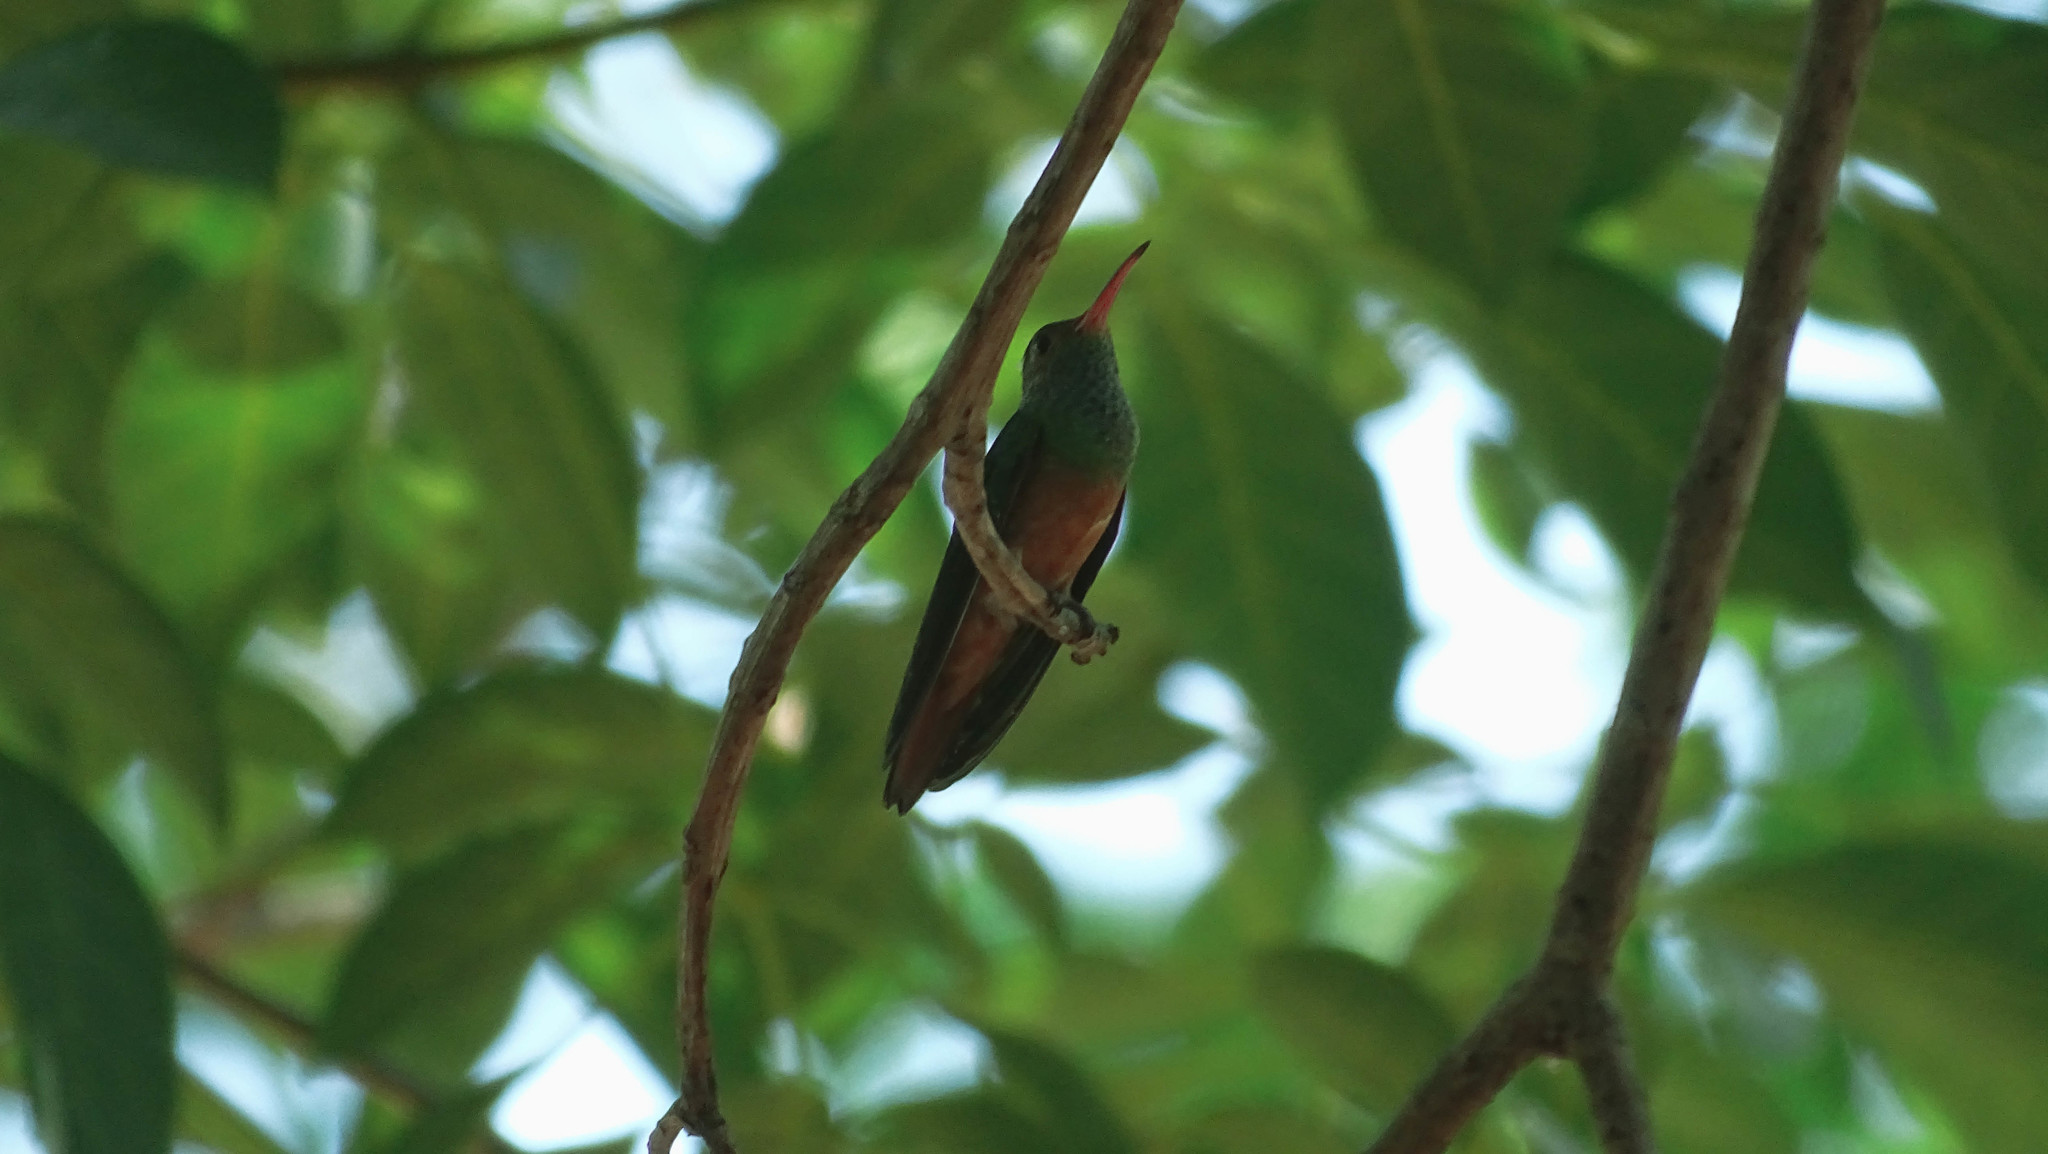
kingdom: Animalia
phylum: Chordata
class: Aves
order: Apodiformes
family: Trochilidae
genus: Amazilia
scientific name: Amazilia yucatanensis
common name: Buff-bellied hummingbird
